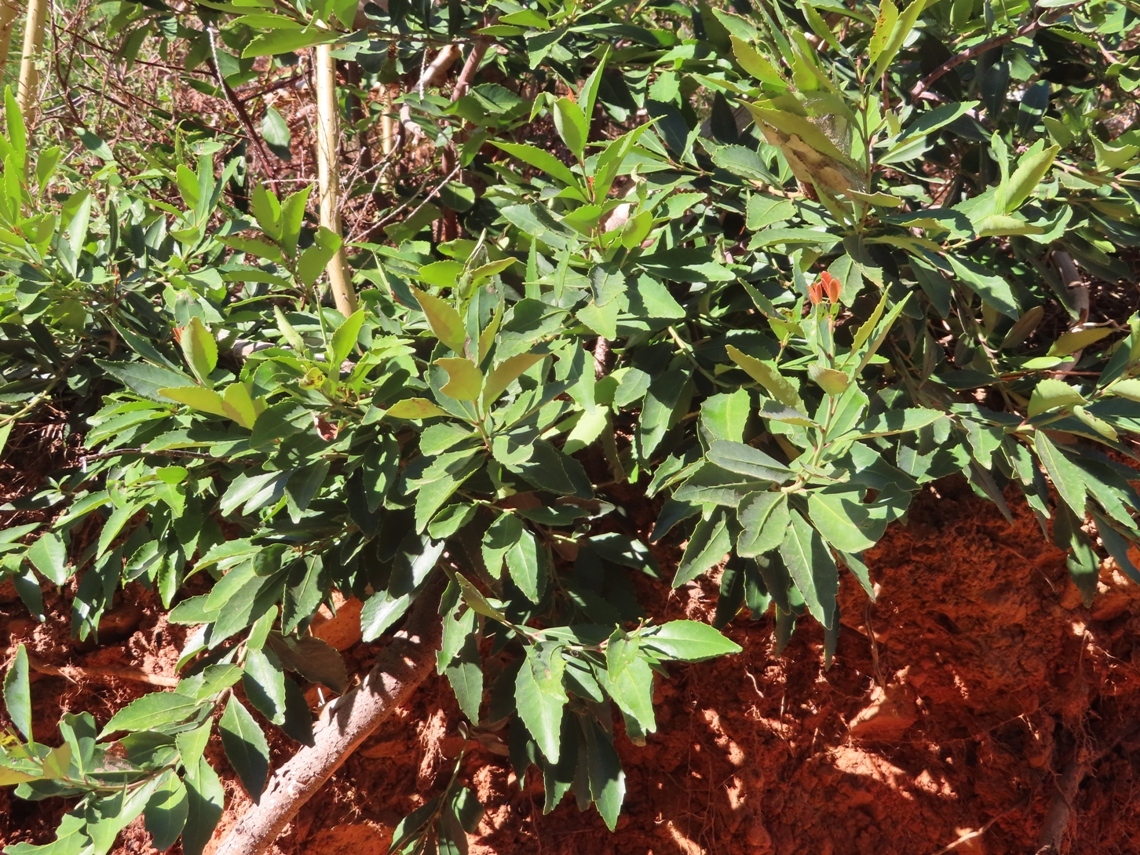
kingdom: Plantae
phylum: Tracheophyta
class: Magnoliopsida
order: Celastrales
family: Celastraceae
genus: Elaeodendron
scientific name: Elaeodendron schinoides
